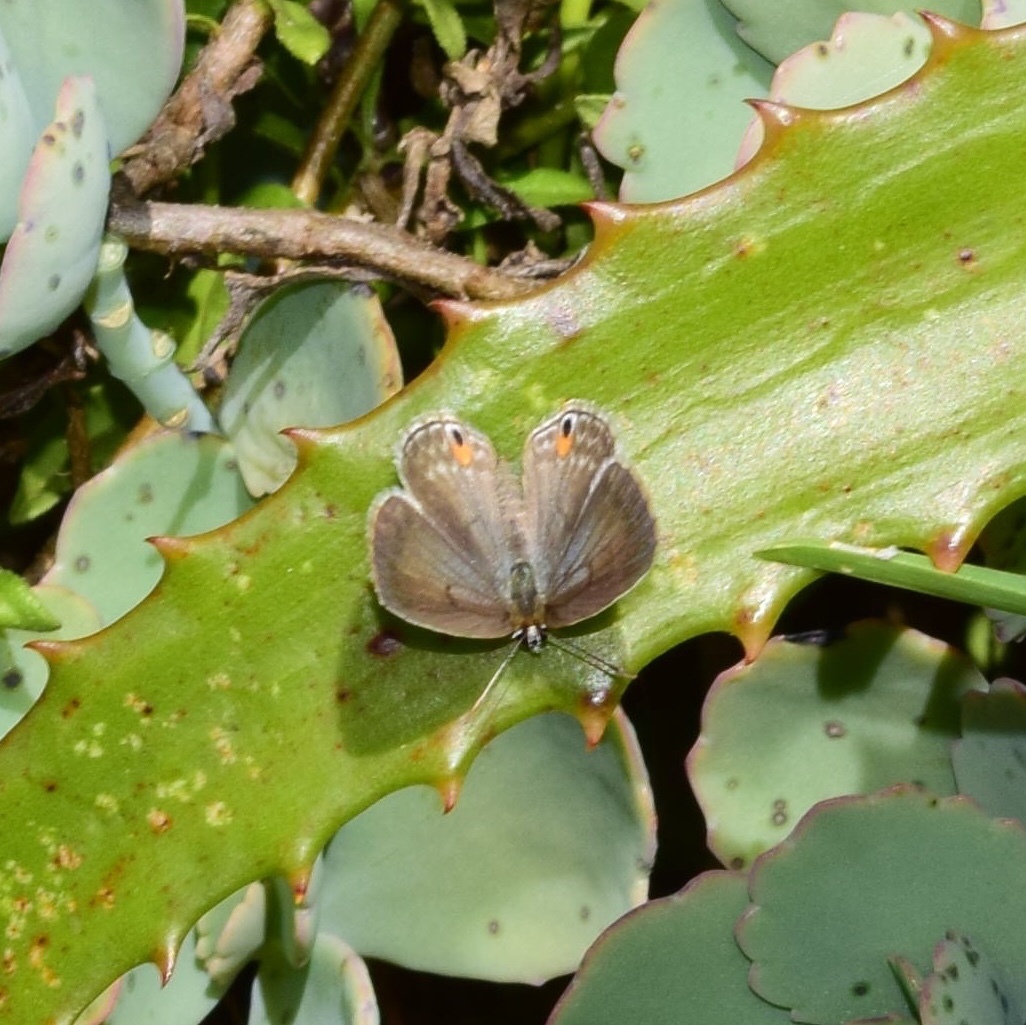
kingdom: Animalia
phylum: Arthropoda
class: Insecta
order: Lepidoptera
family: Lycaenidae
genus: Euchrysops
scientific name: Euchrysops malathana
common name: Common smoky blue
